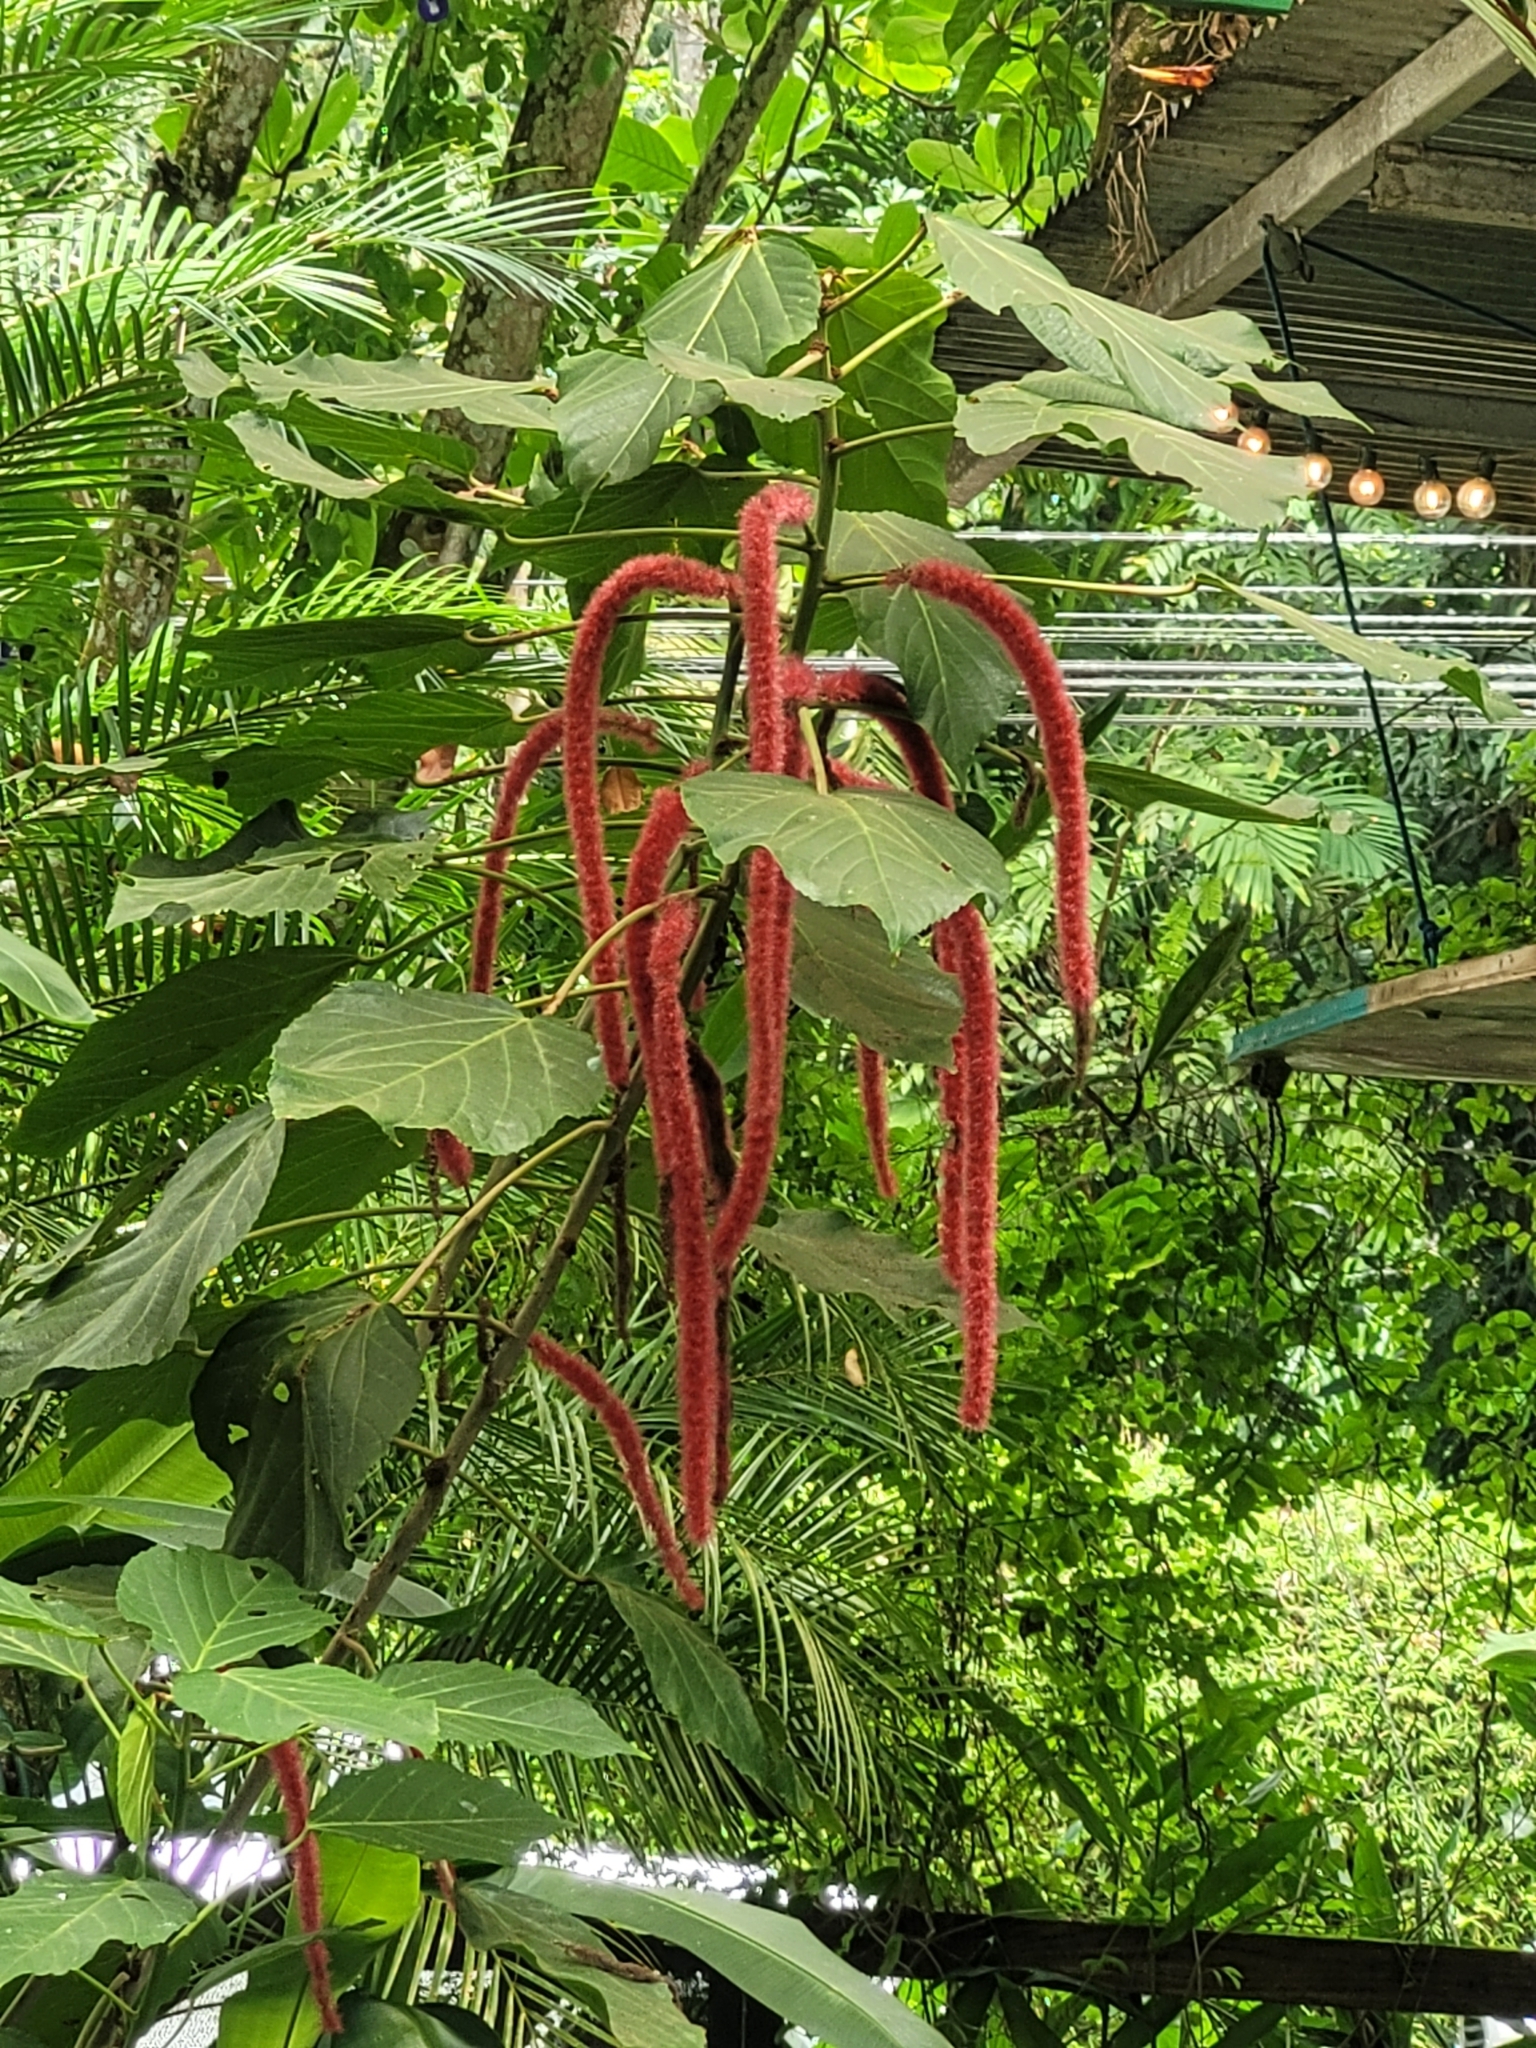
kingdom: Plantae
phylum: Tracheophyta
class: Magnoliopsida
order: Malpighiales
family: Euphorbiaceae
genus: Acalypha
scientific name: Acalypha hispida
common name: Chenilleplant
